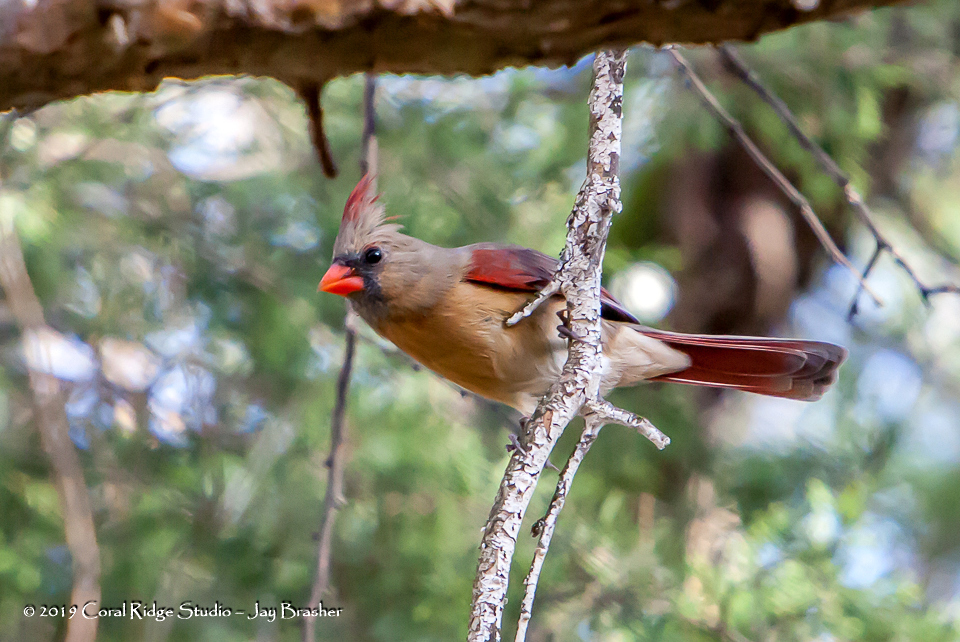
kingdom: Animalia
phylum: Chordata
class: Aves
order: Passeriformes
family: Cardinalidae
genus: Cardinalis
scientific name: Cardinalis cardinalis
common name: Northern cardinal
